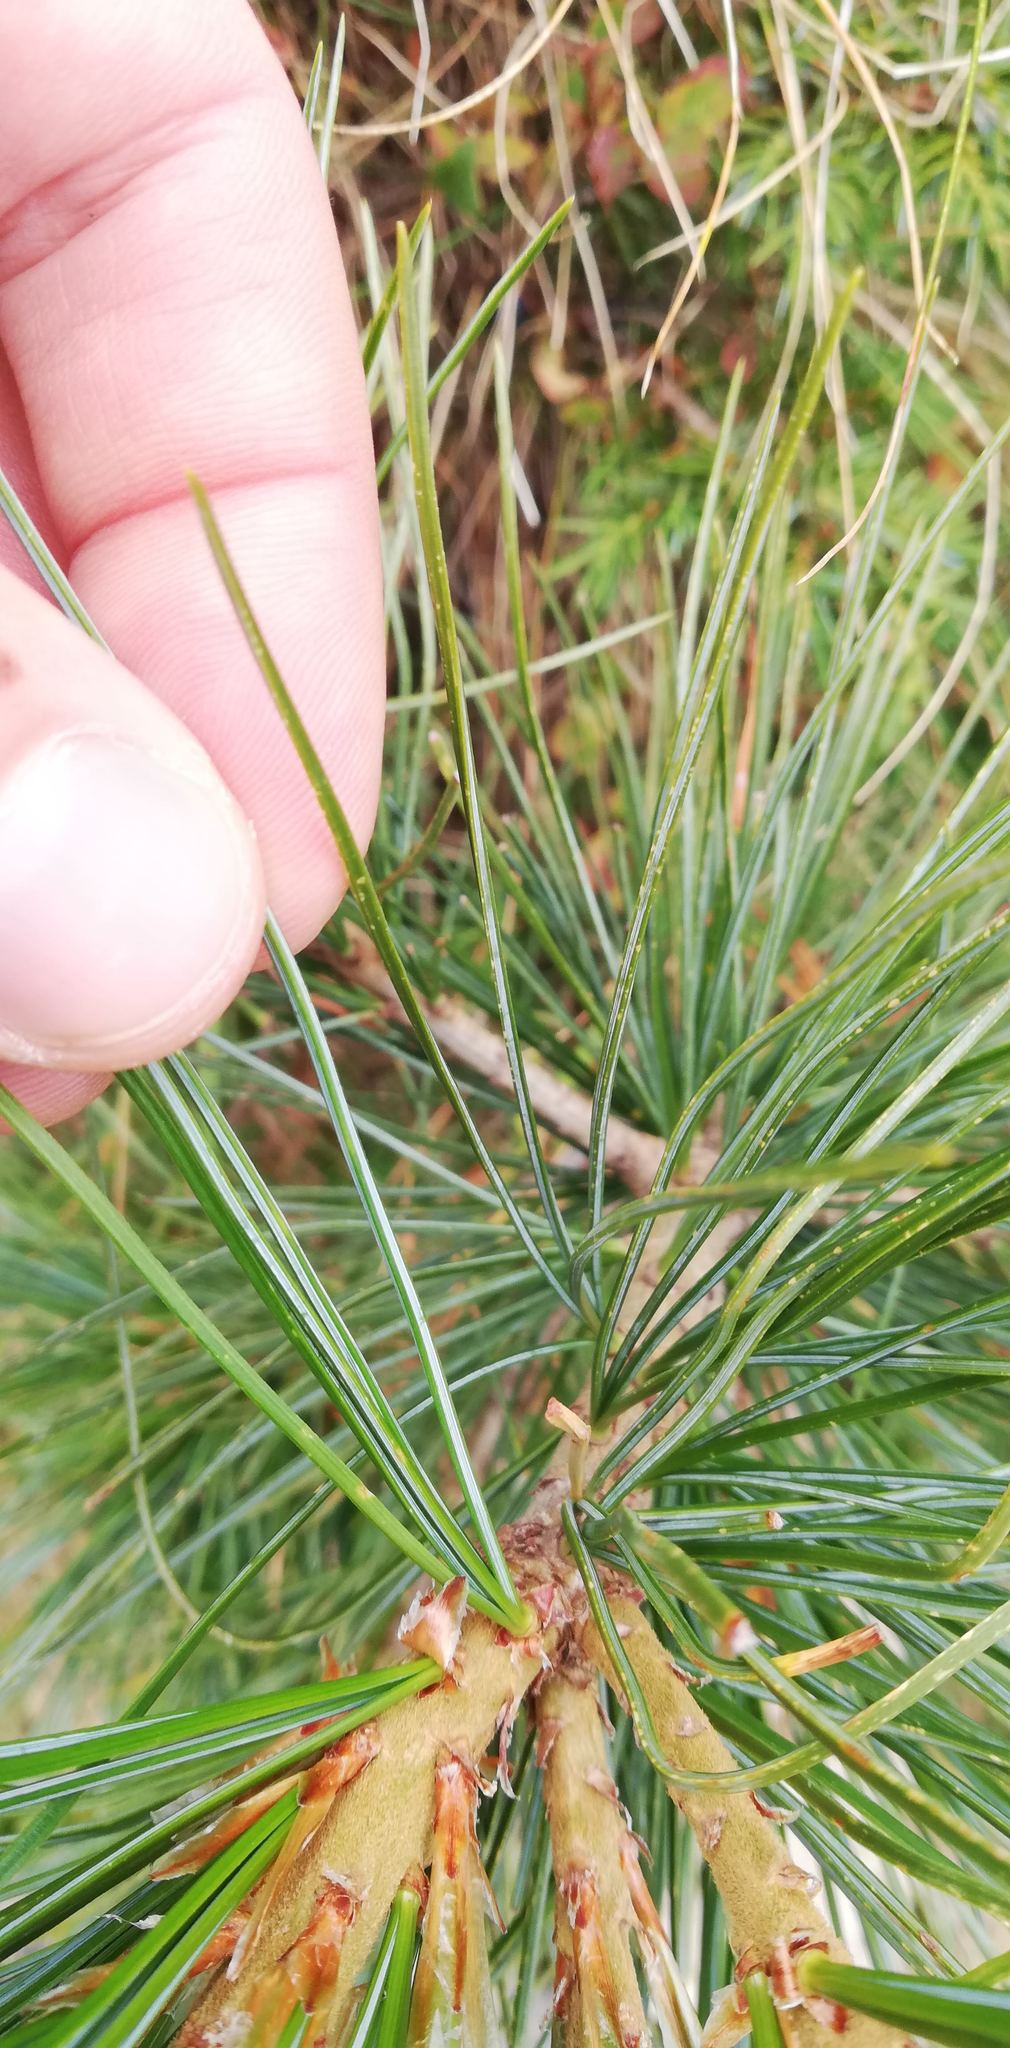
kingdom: Plantae
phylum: Tracheophyta
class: Pinopsida
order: Pinales
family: Pinaceae
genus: Pinus
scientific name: Pinus cembra
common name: Arolla pine
